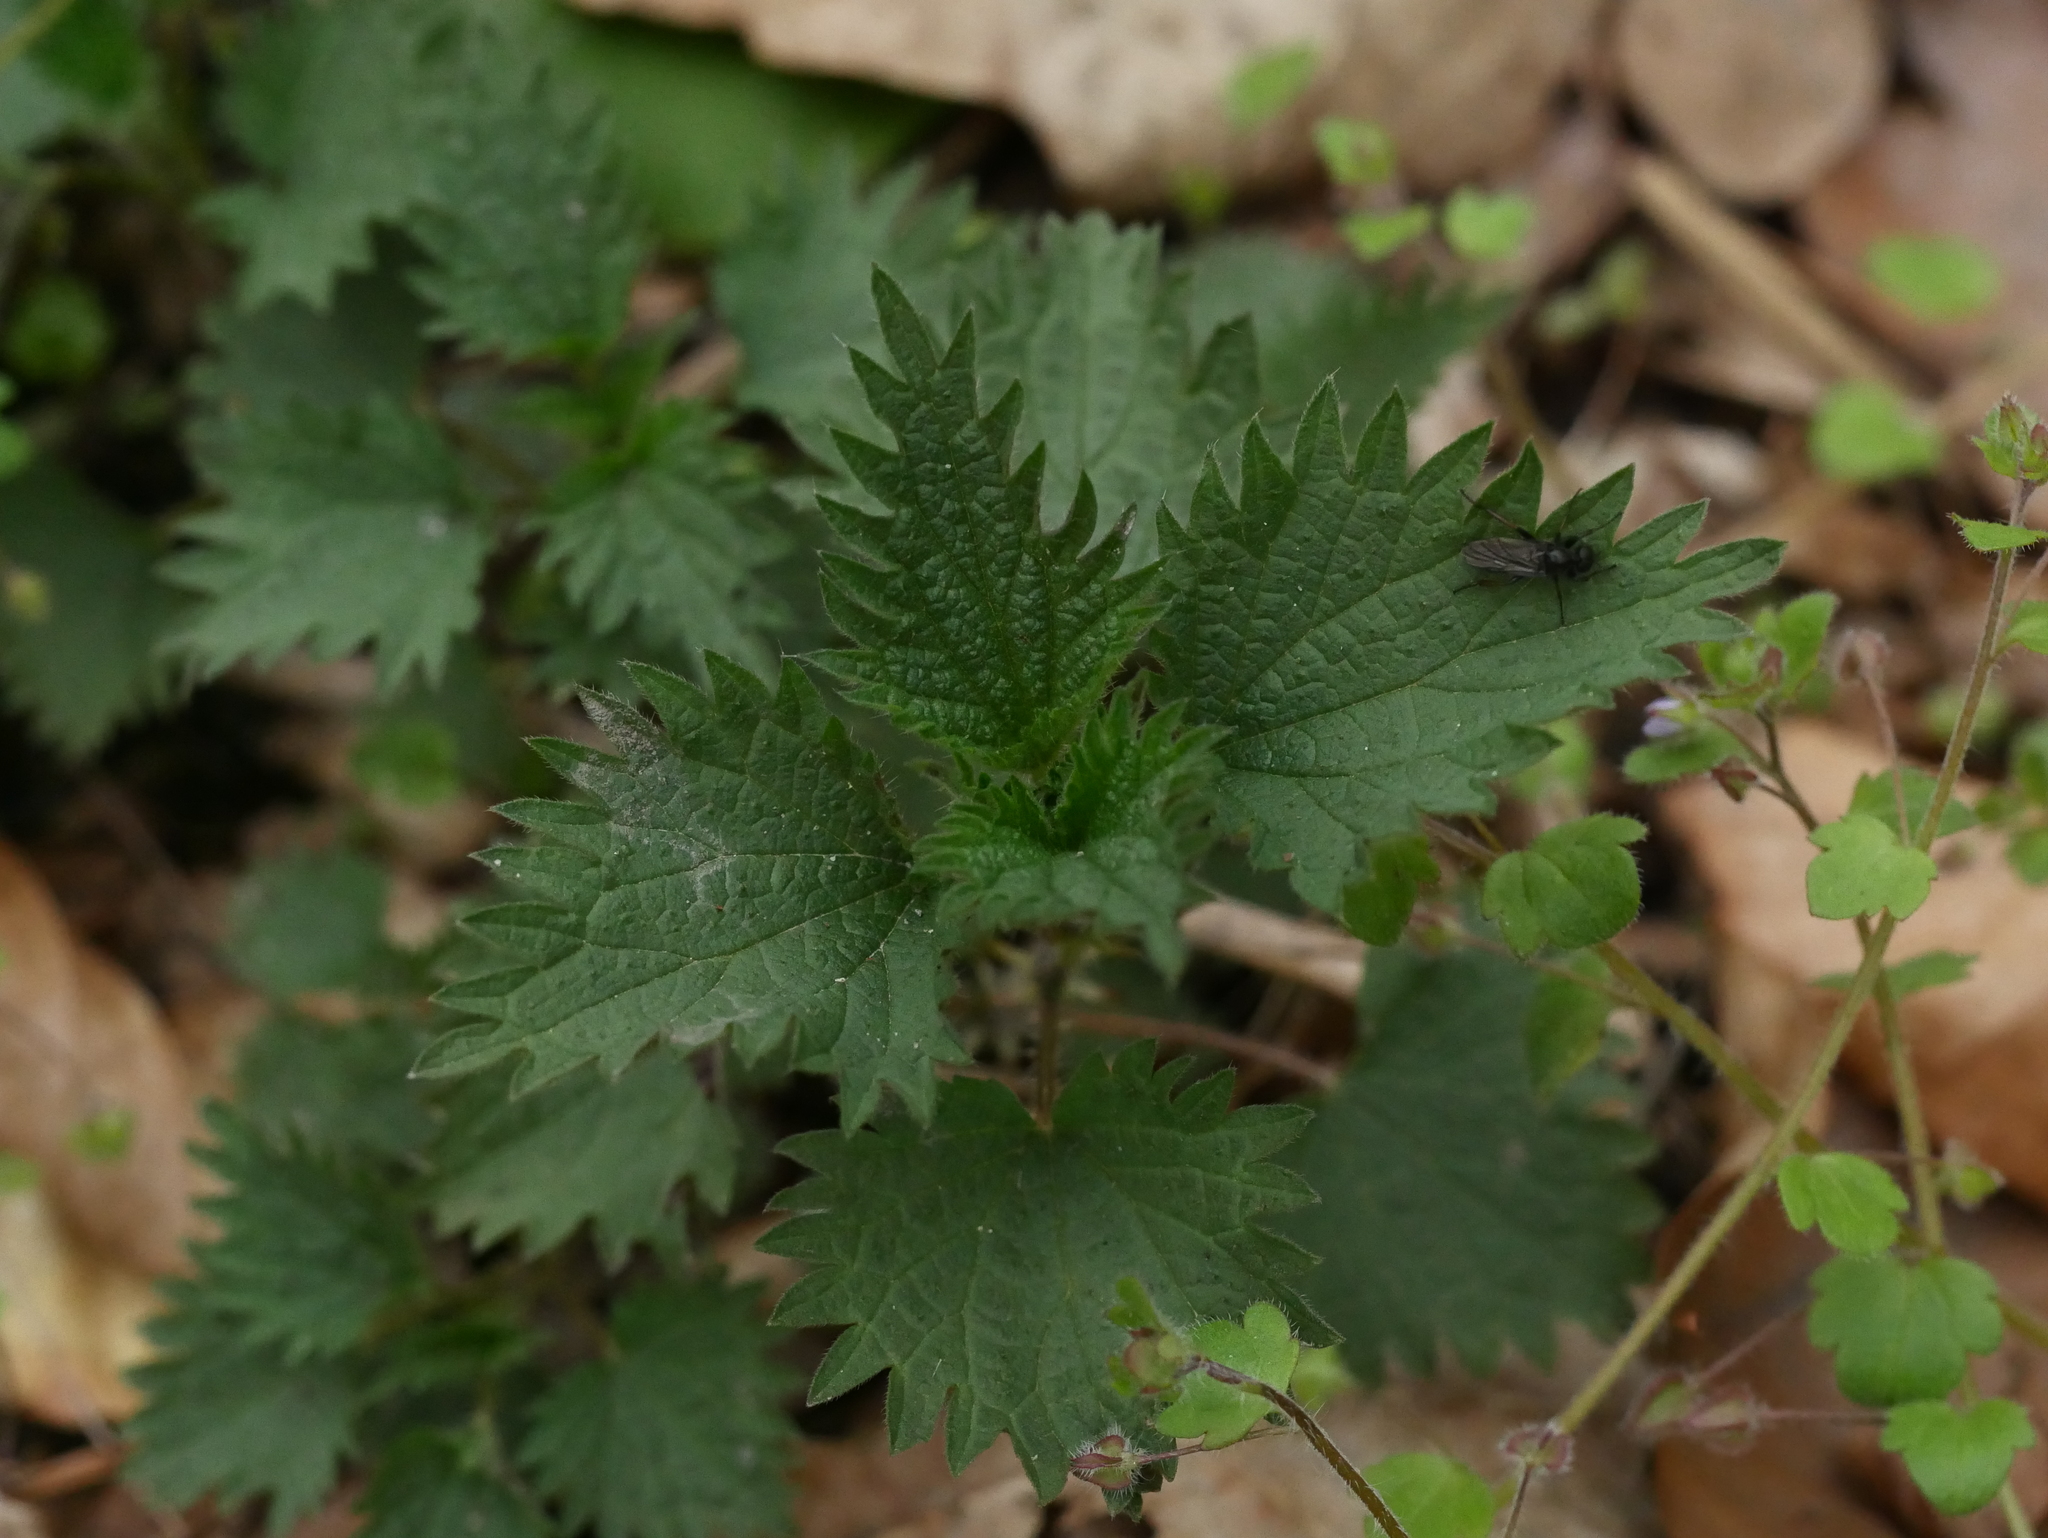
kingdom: Plantae
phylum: Tracheophyta
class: Magnoliopsida
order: Rosales
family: Urticaceae
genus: Urtica
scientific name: Urtica dioica
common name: Common nettle
